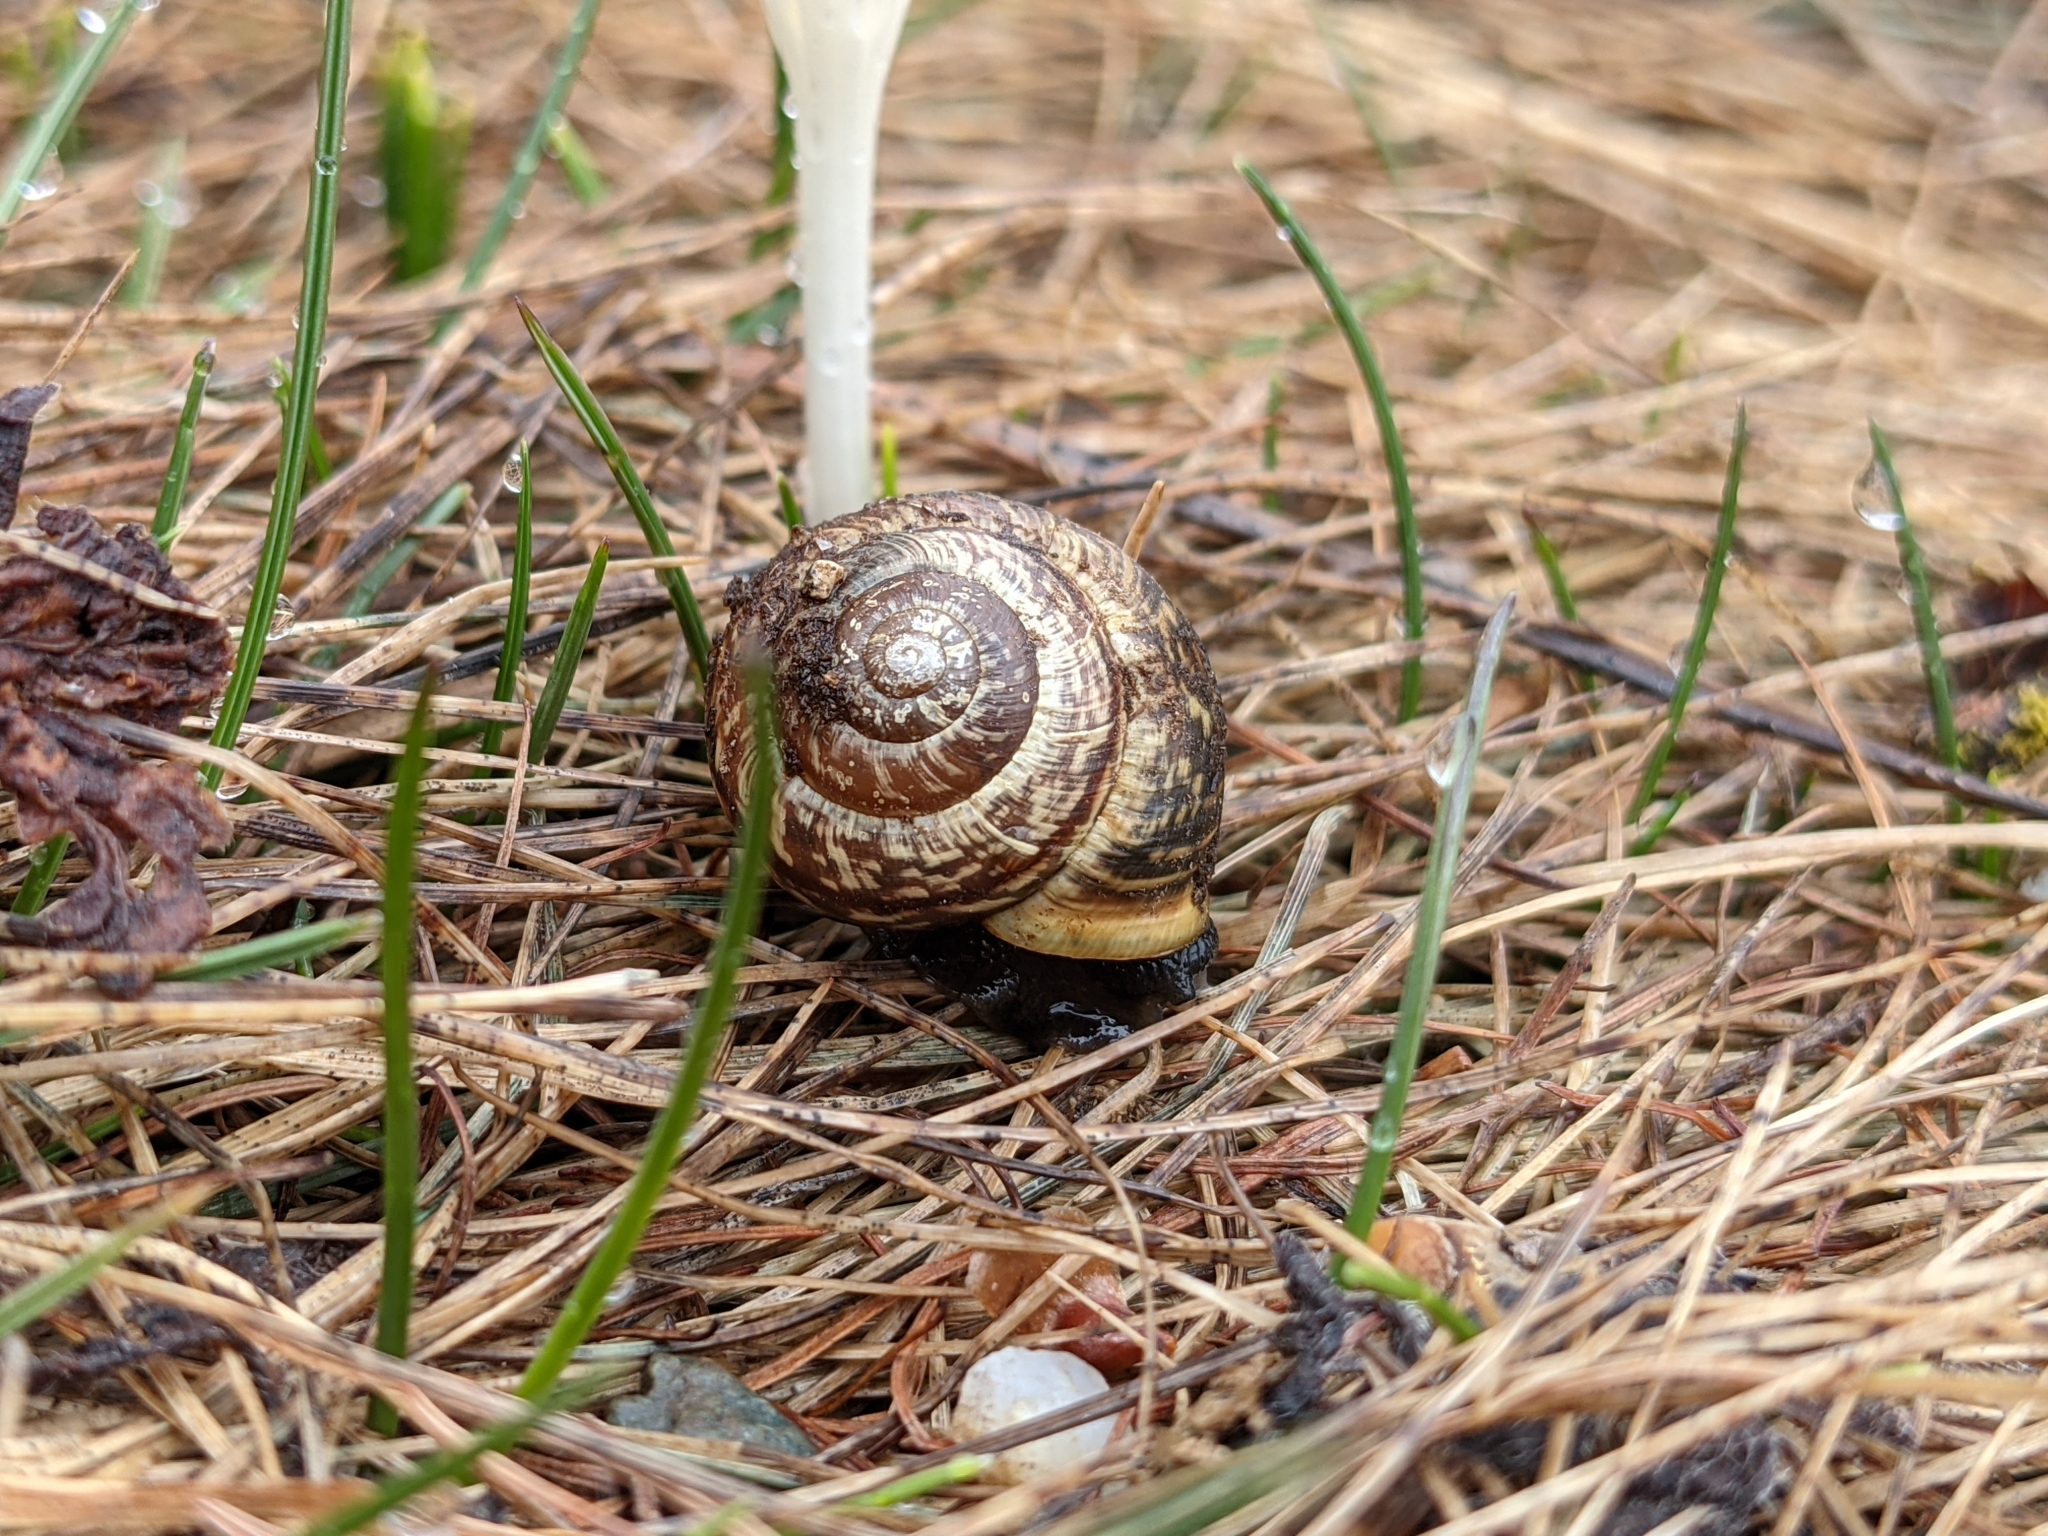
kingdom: Animalia
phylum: Mollusca
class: Gastropoda
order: Stylommatophora
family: Helicidae
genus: Arianta
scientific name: Arianta arbustorum
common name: Copse snail
